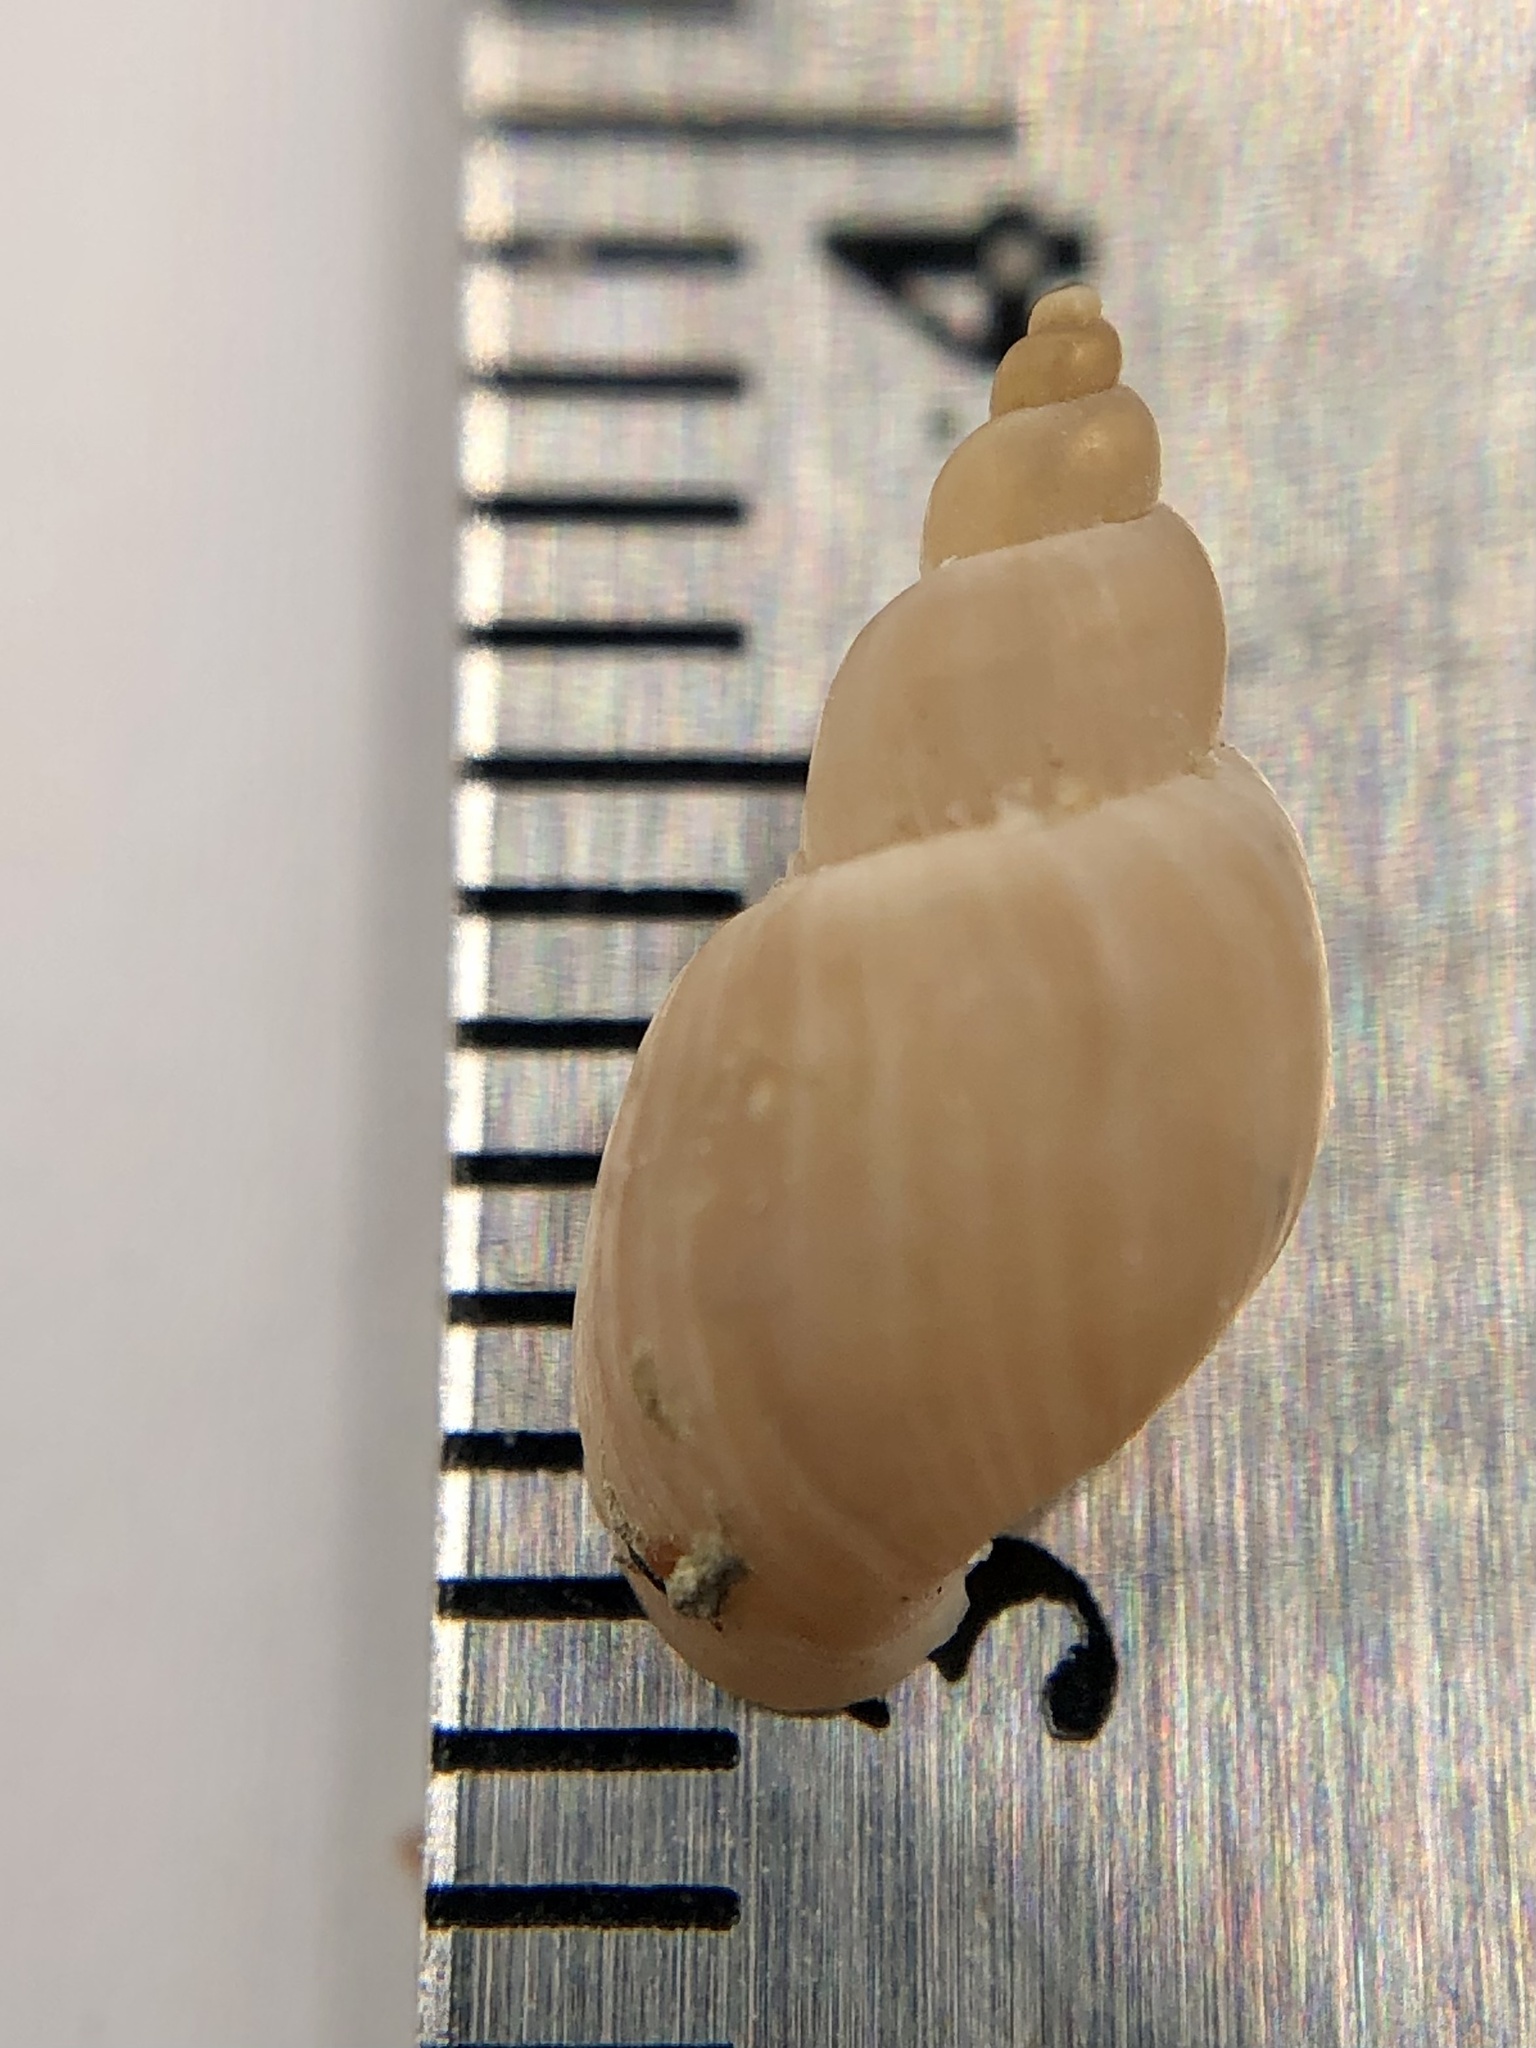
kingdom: Animalia
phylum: Mollusca
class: Gastropoda
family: Lymnaeidae
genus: Ladislavella
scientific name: Ladislavella elodes
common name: Marsh pondsnail
